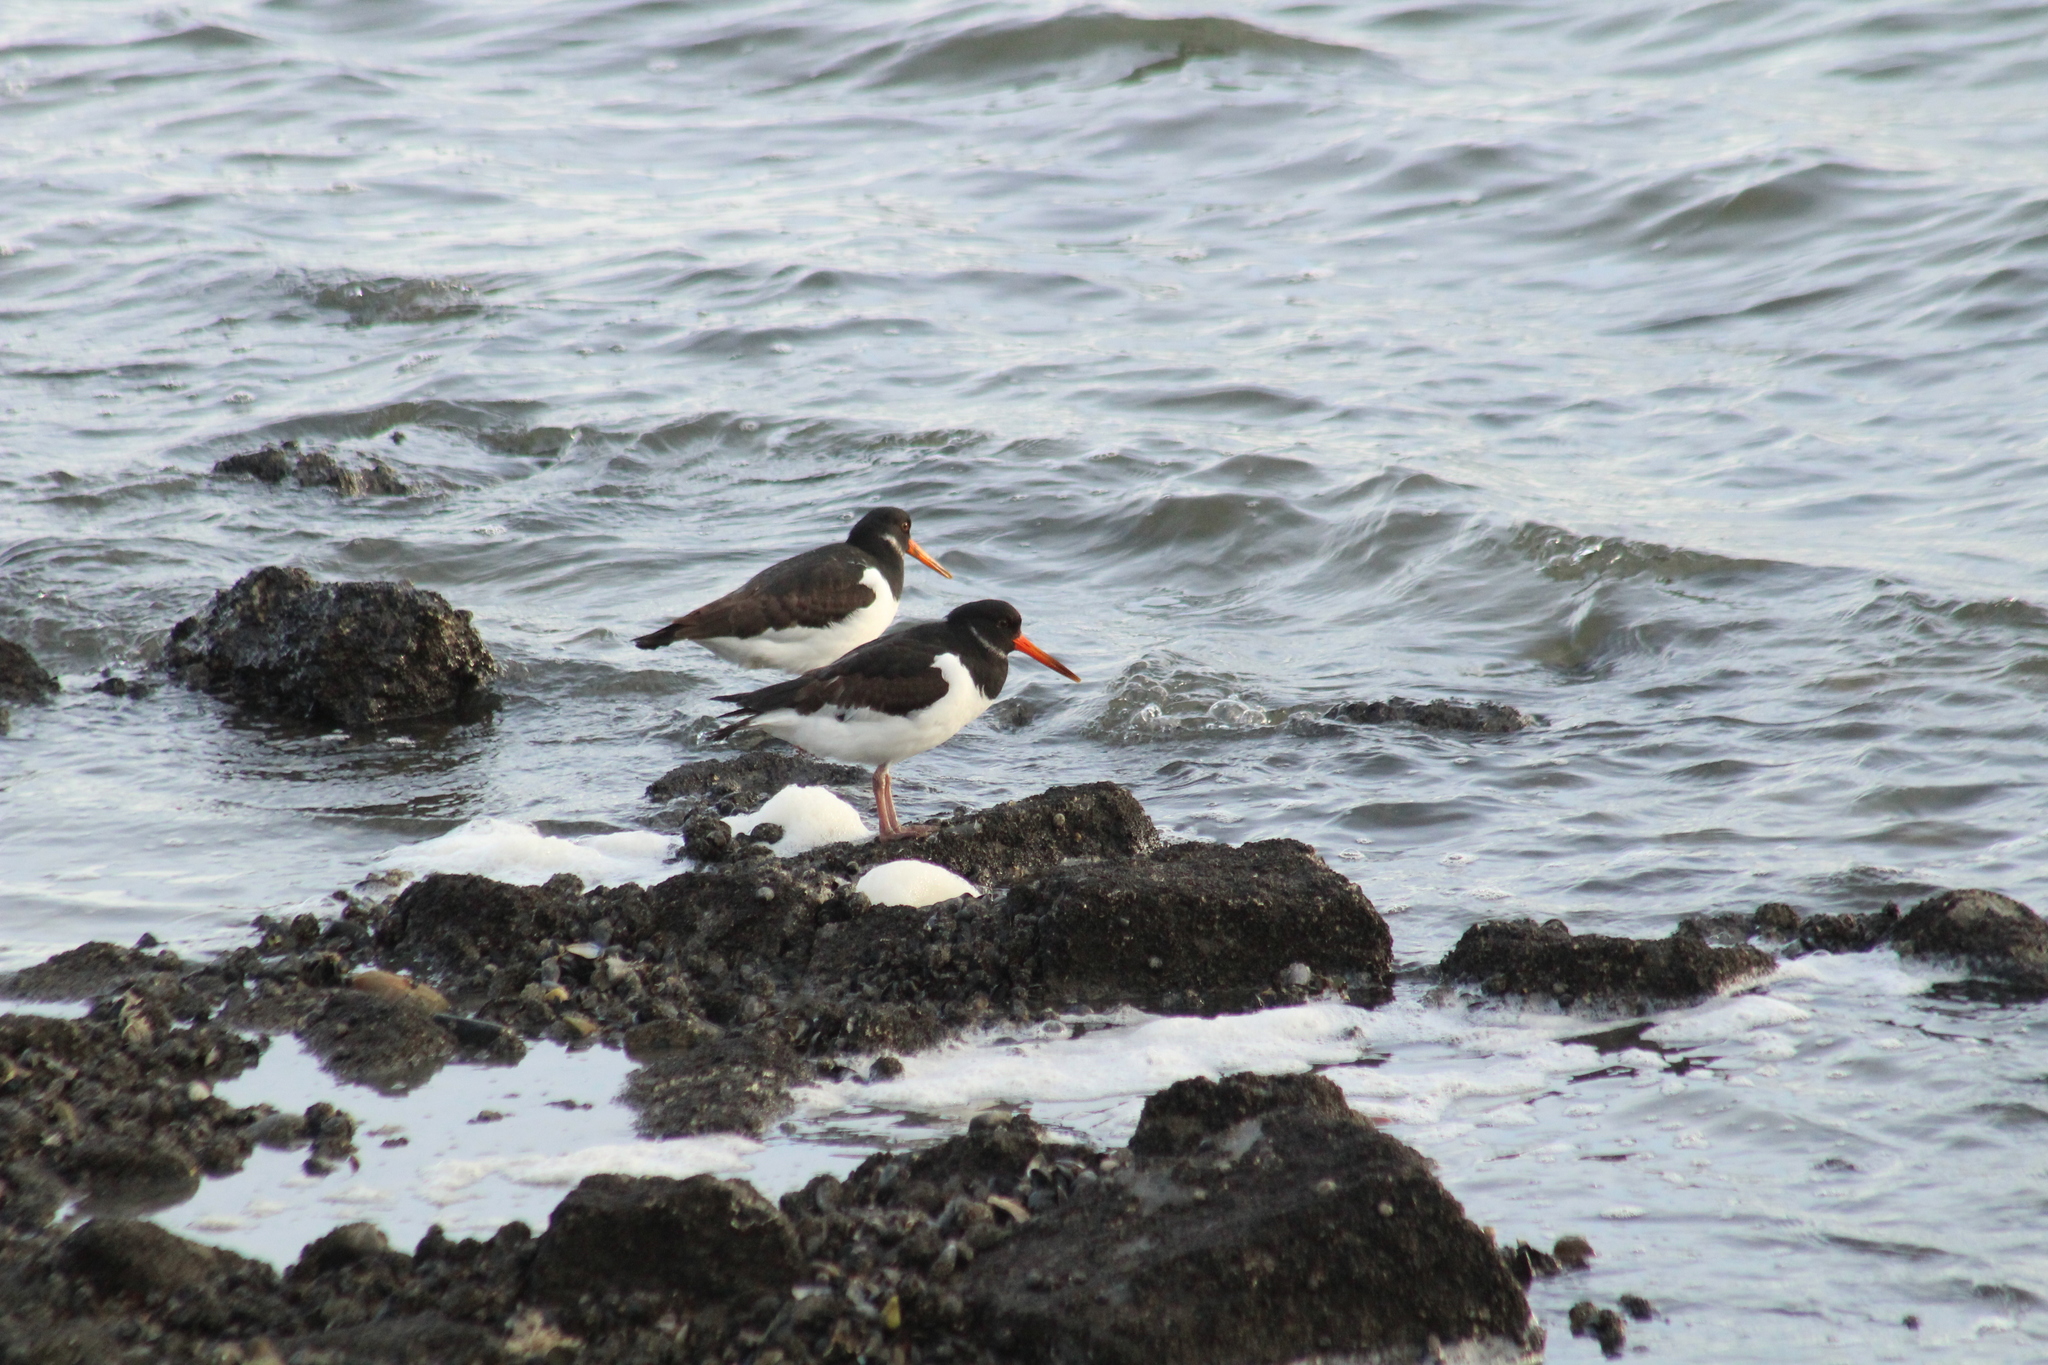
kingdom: Animalia
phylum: Chordata
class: Aves
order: Charadriiformes
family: Haematopodidae
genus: Haematopus
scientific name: Haematopus ostralegus
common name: Eurasian oystercatcher
